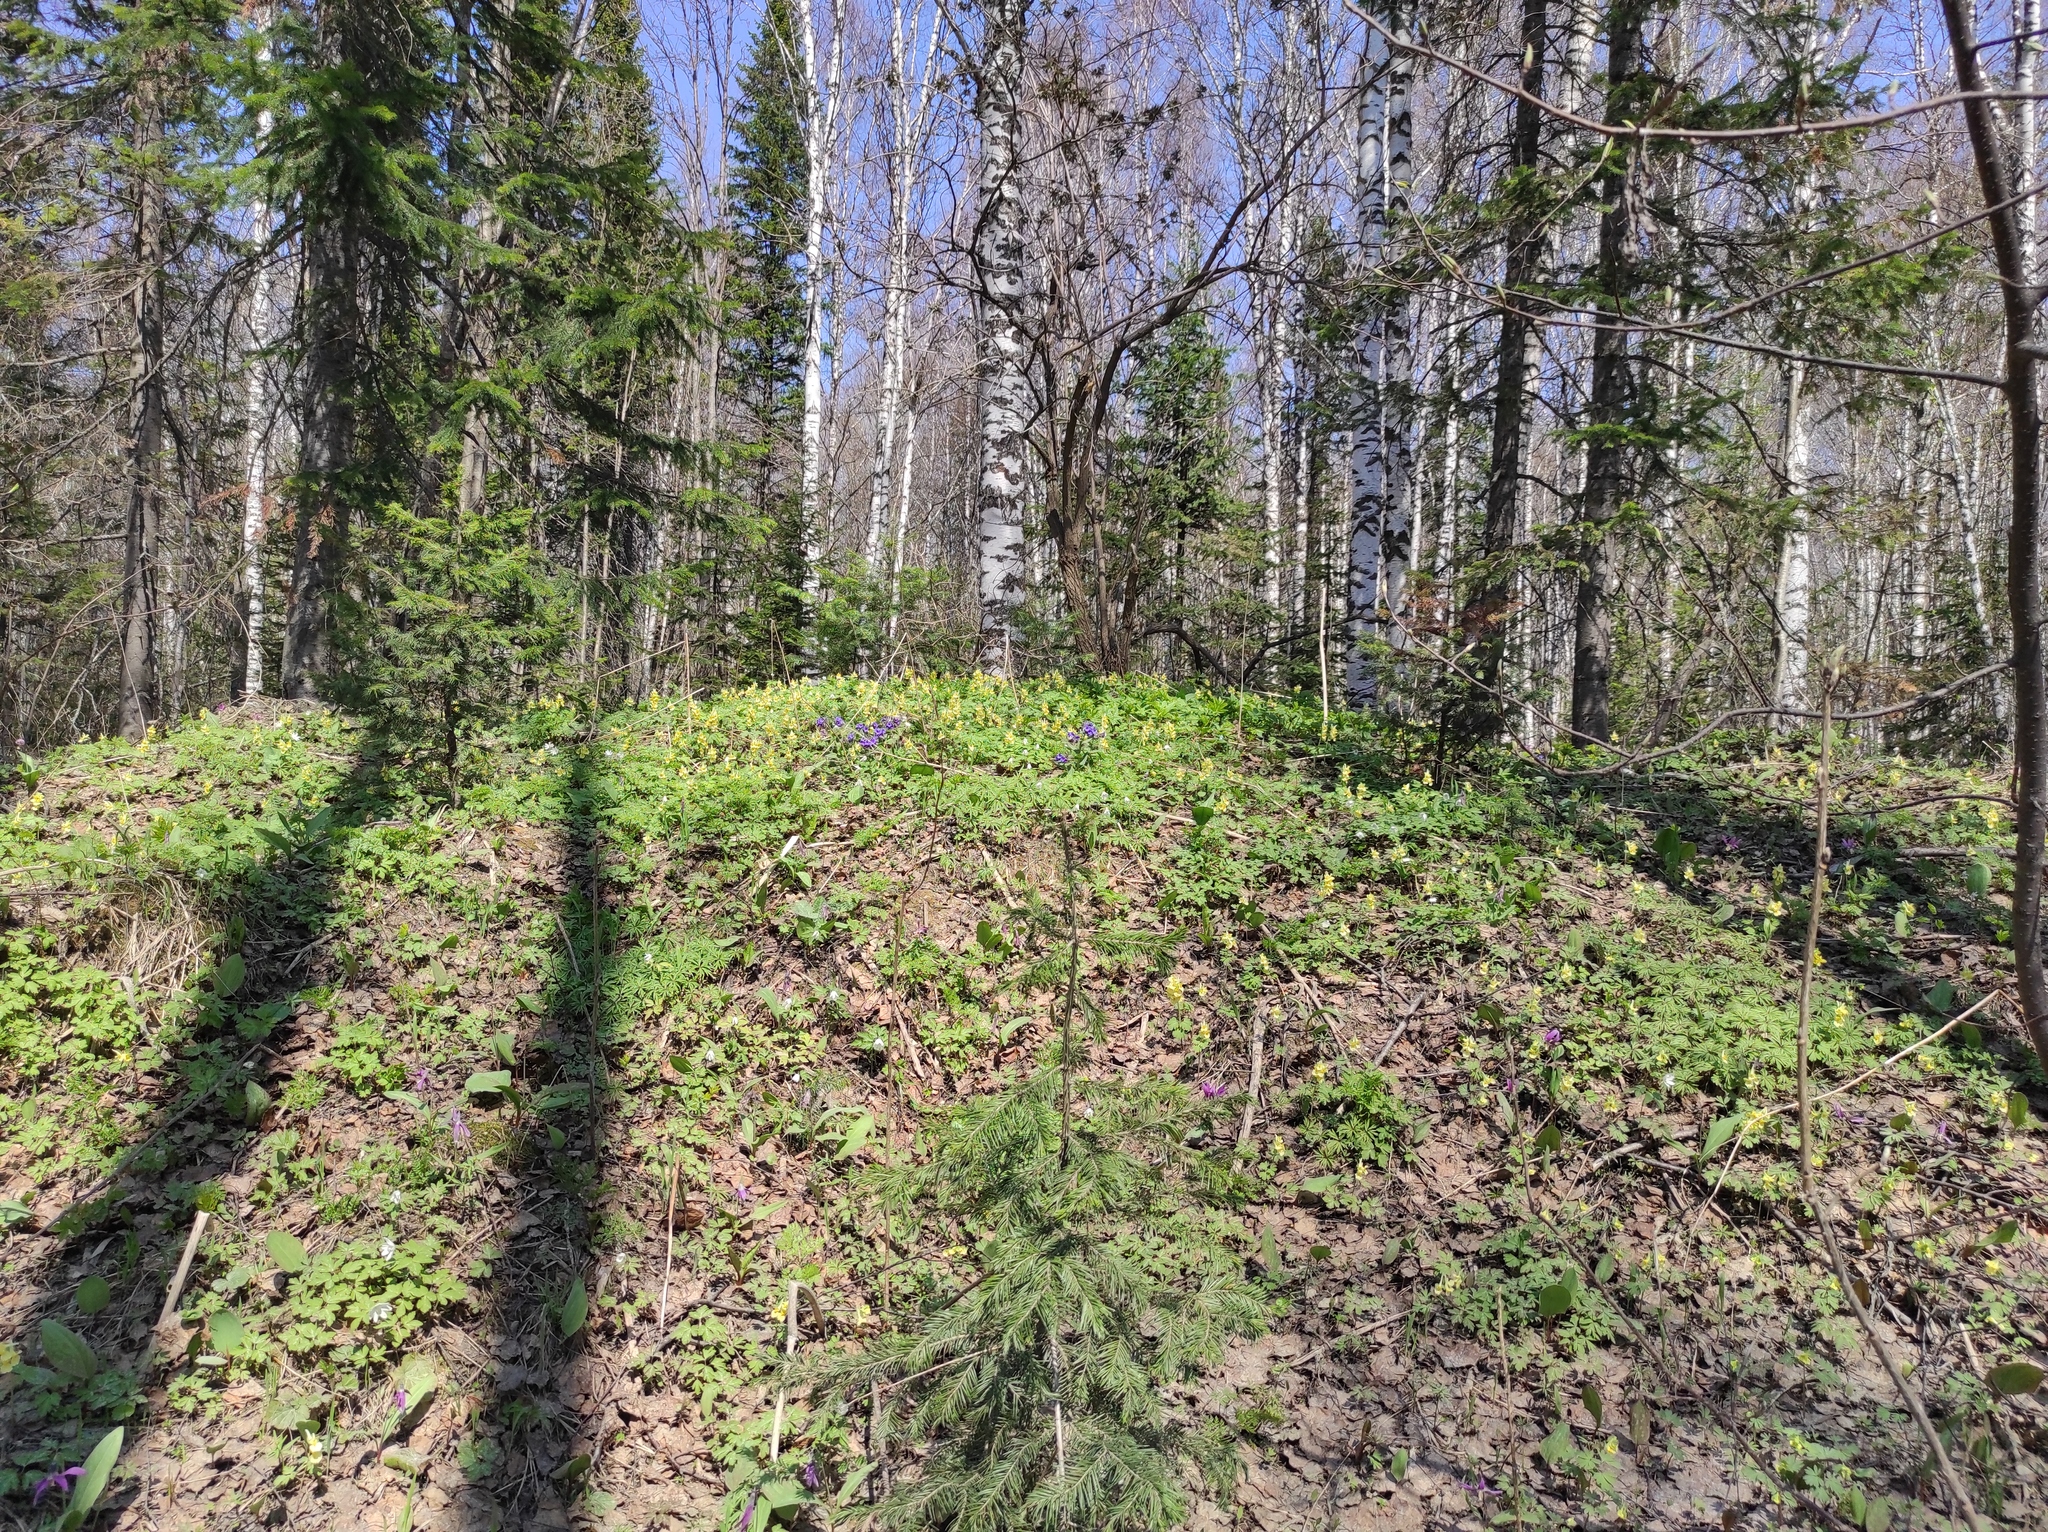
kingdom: Plantae
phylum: Tracheophyta
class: Magnoliopsida
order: Ranunculales
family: Papaveraceae
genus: Corydalis
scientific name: Corydalis bracteata
